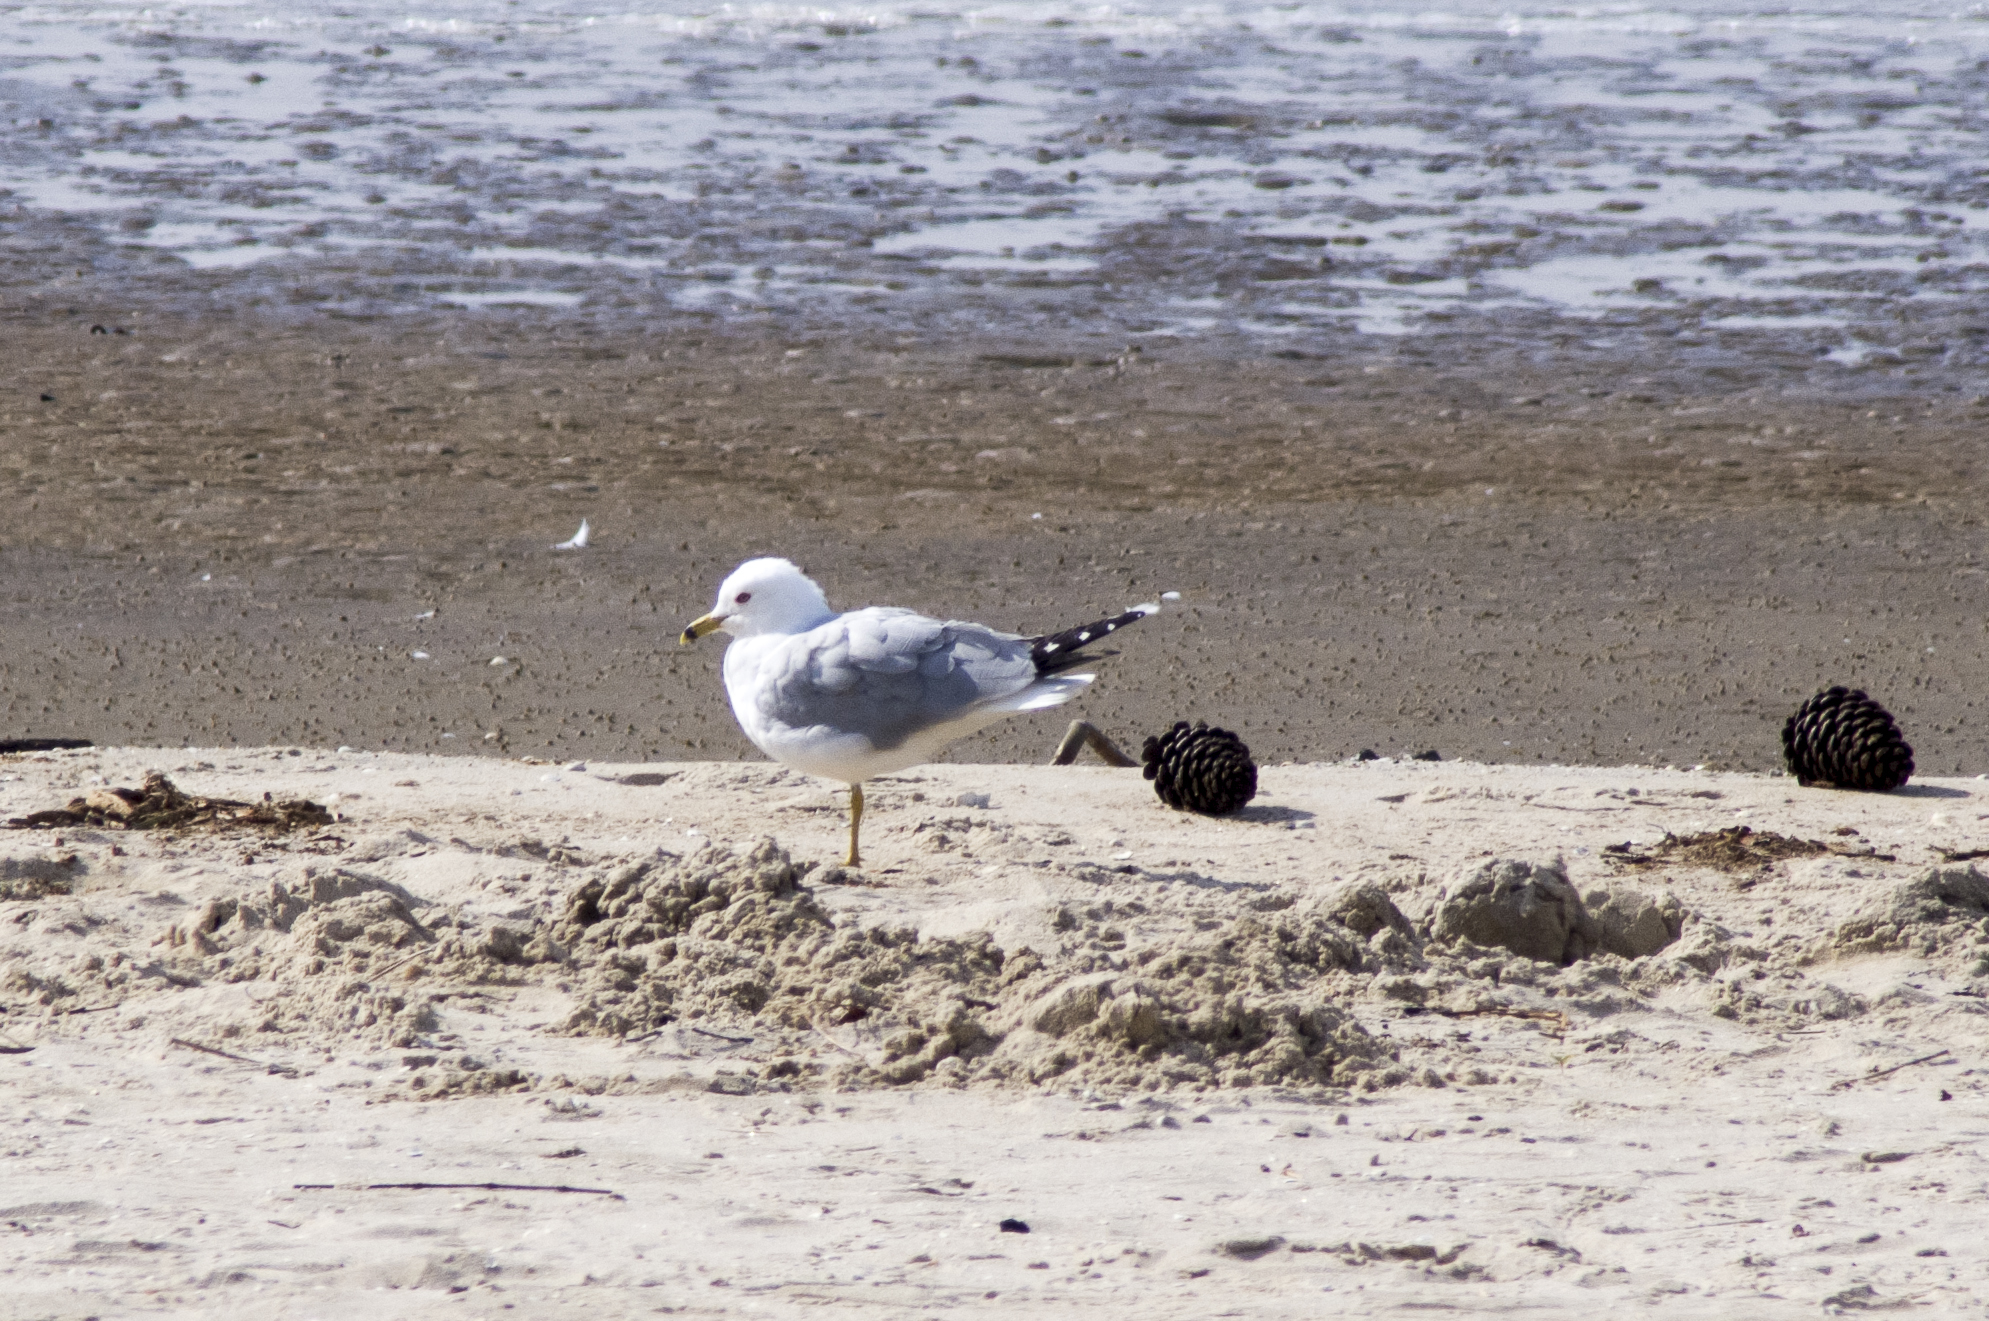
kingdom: Animalia
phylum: Chordata
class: Aves
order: Charadriiformes
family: Laridae
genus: Larus
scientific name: Larus delawarensis
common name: Ring-billed gull
